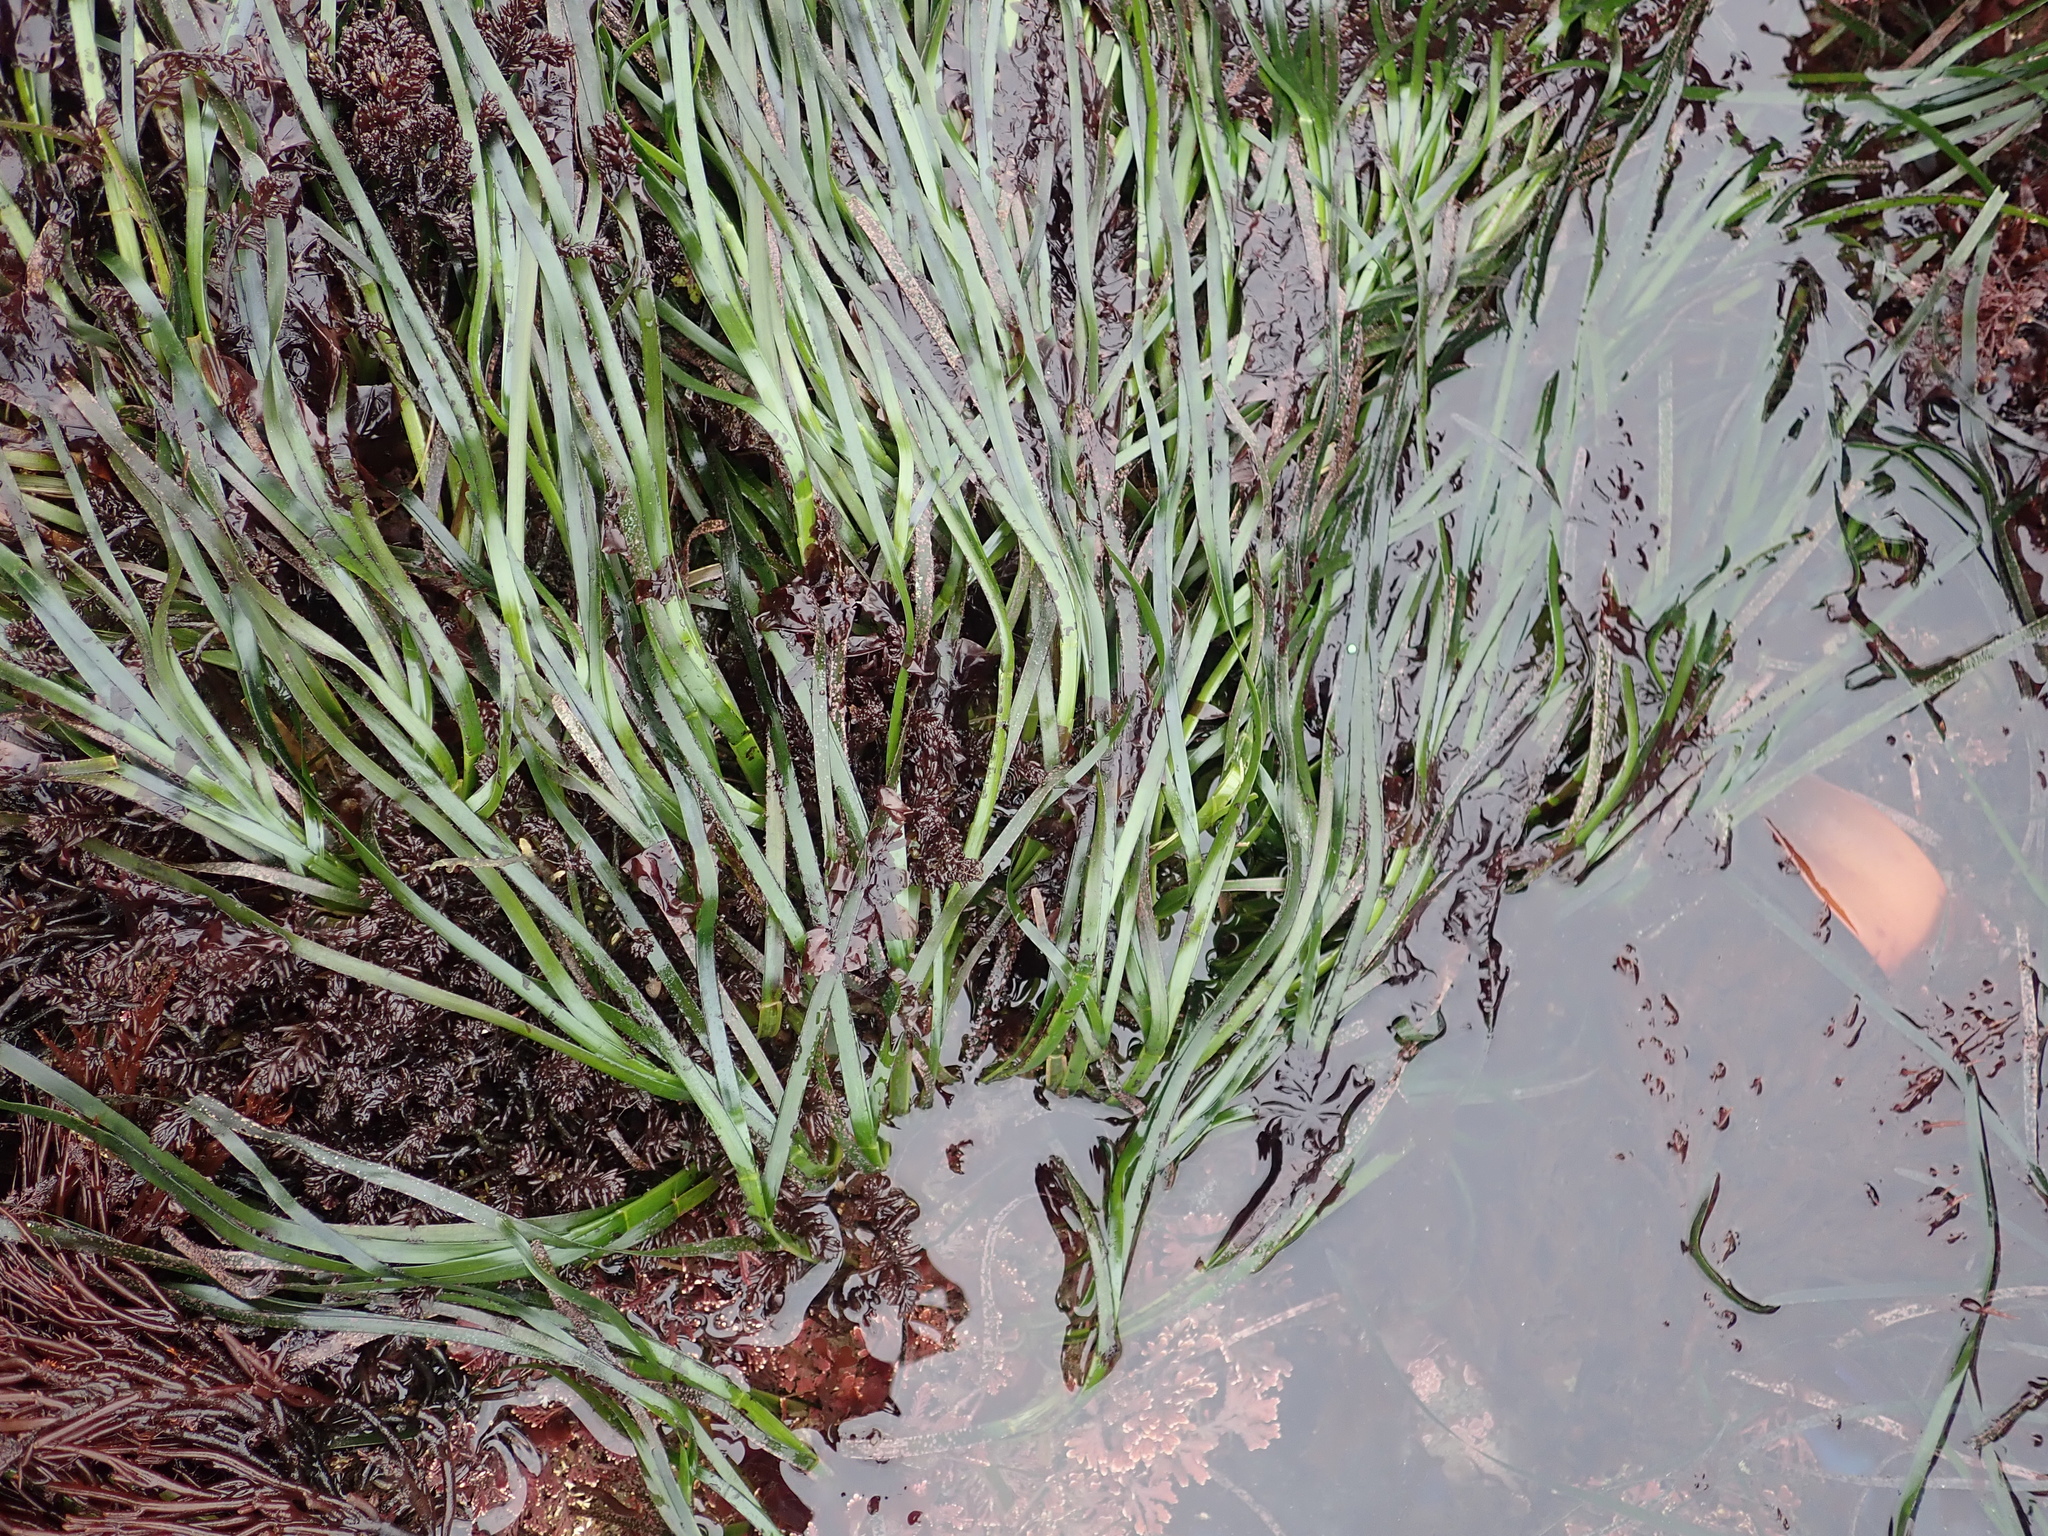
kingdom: Plantae
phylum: Tracheophyta
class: Liliopsida
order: Alismatales
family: Zosteraceae
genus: Phyllospadix
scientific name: Phyllospadix scouleri
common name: Species code: ps
